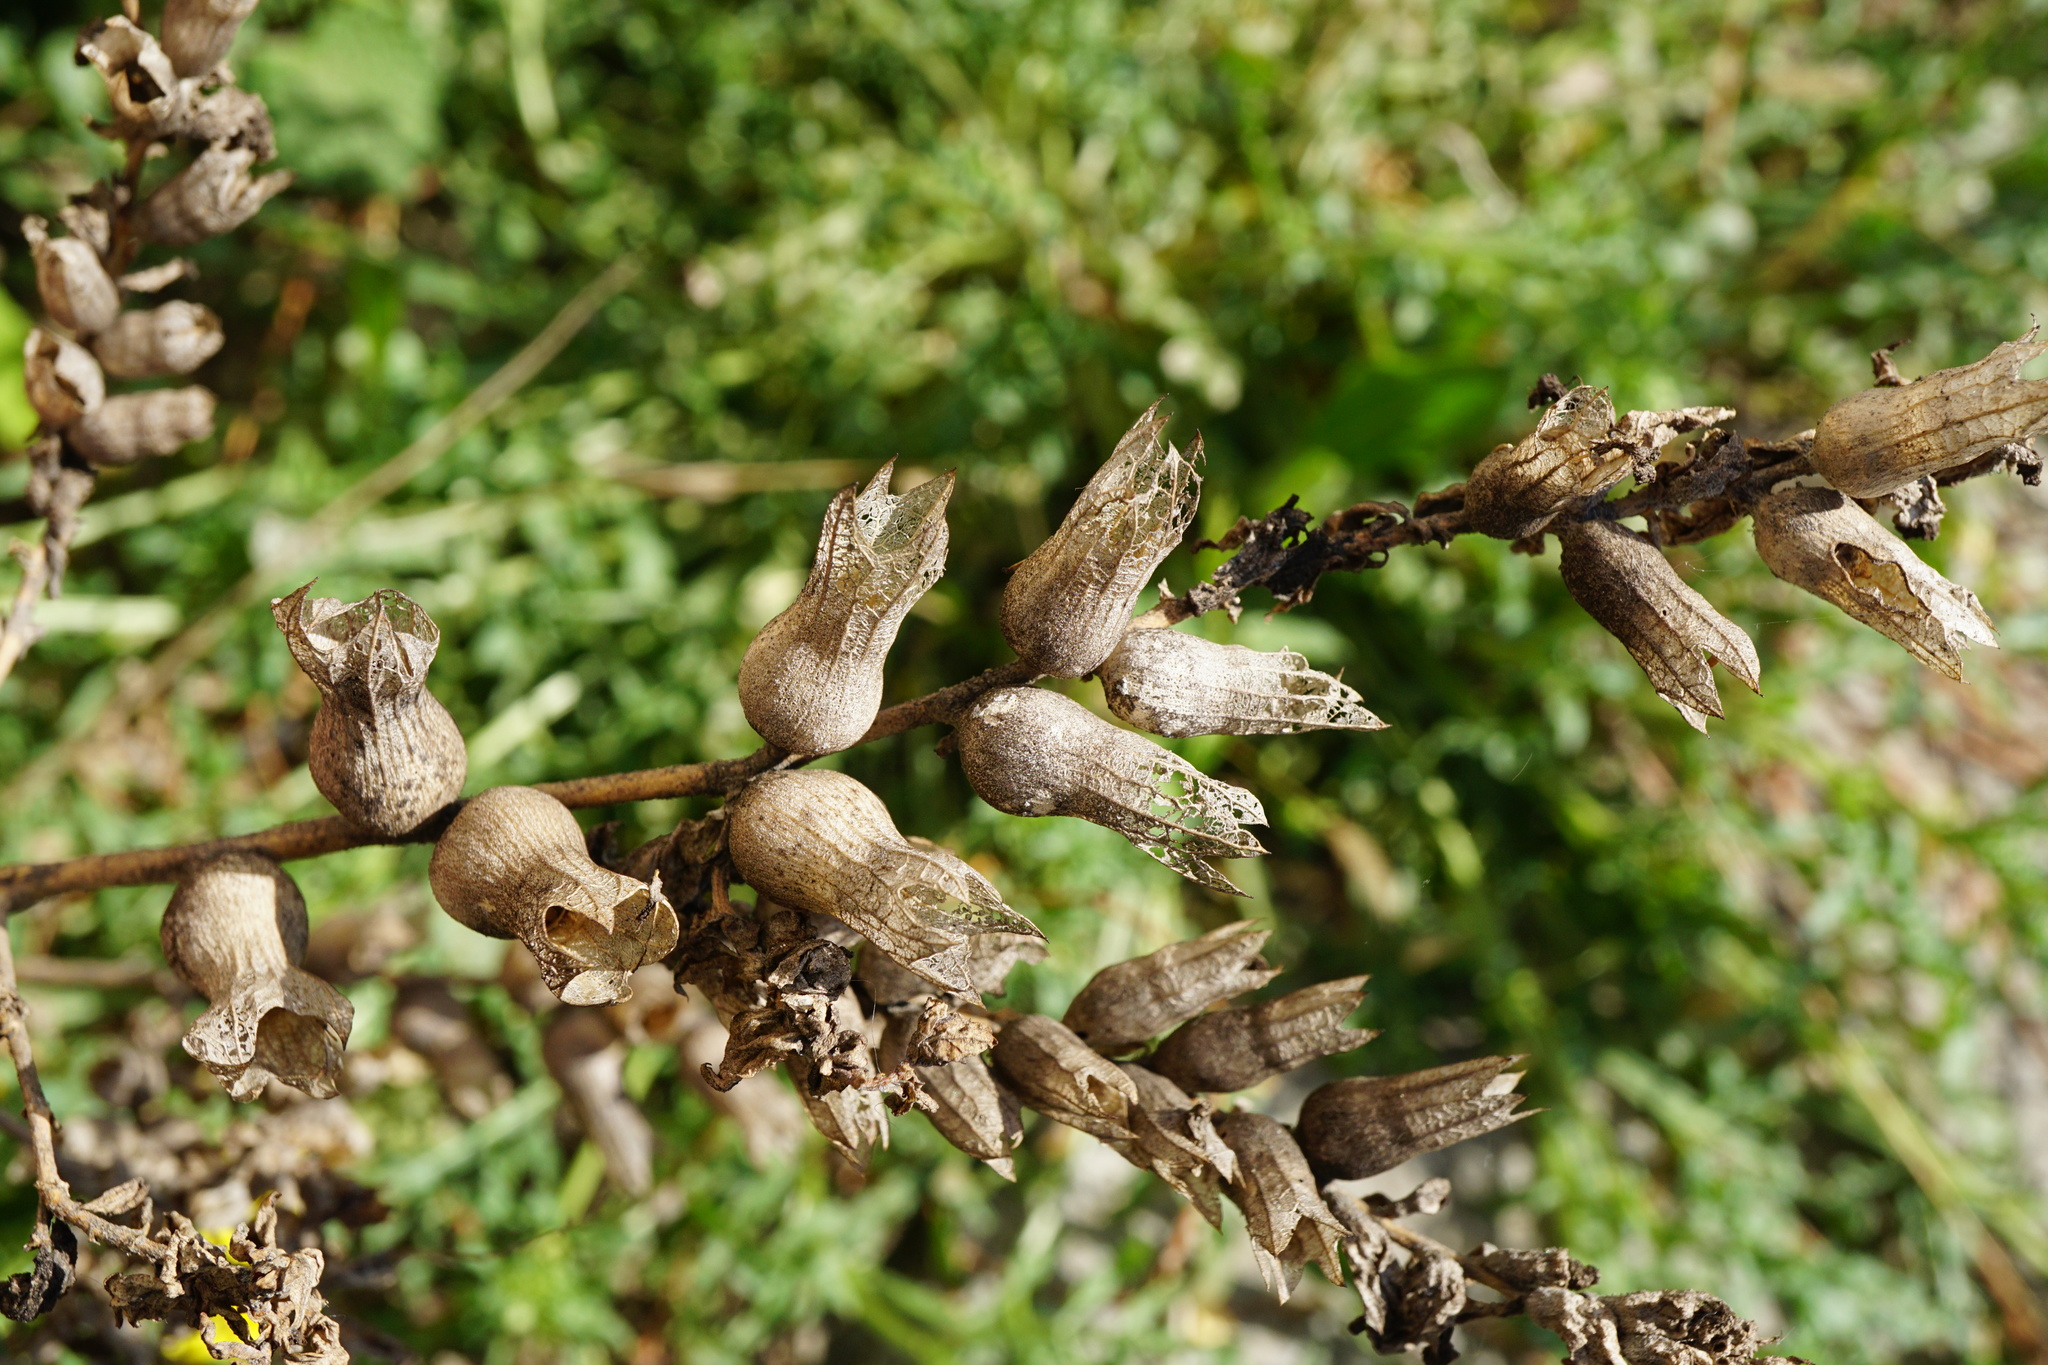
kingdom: Plantae
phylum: Tracheophyta
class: Magnoliopsida
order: Solanales
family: Solanaceae
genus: Hyoscyamus
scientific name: Hyoscyamus niger
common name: Henbane
